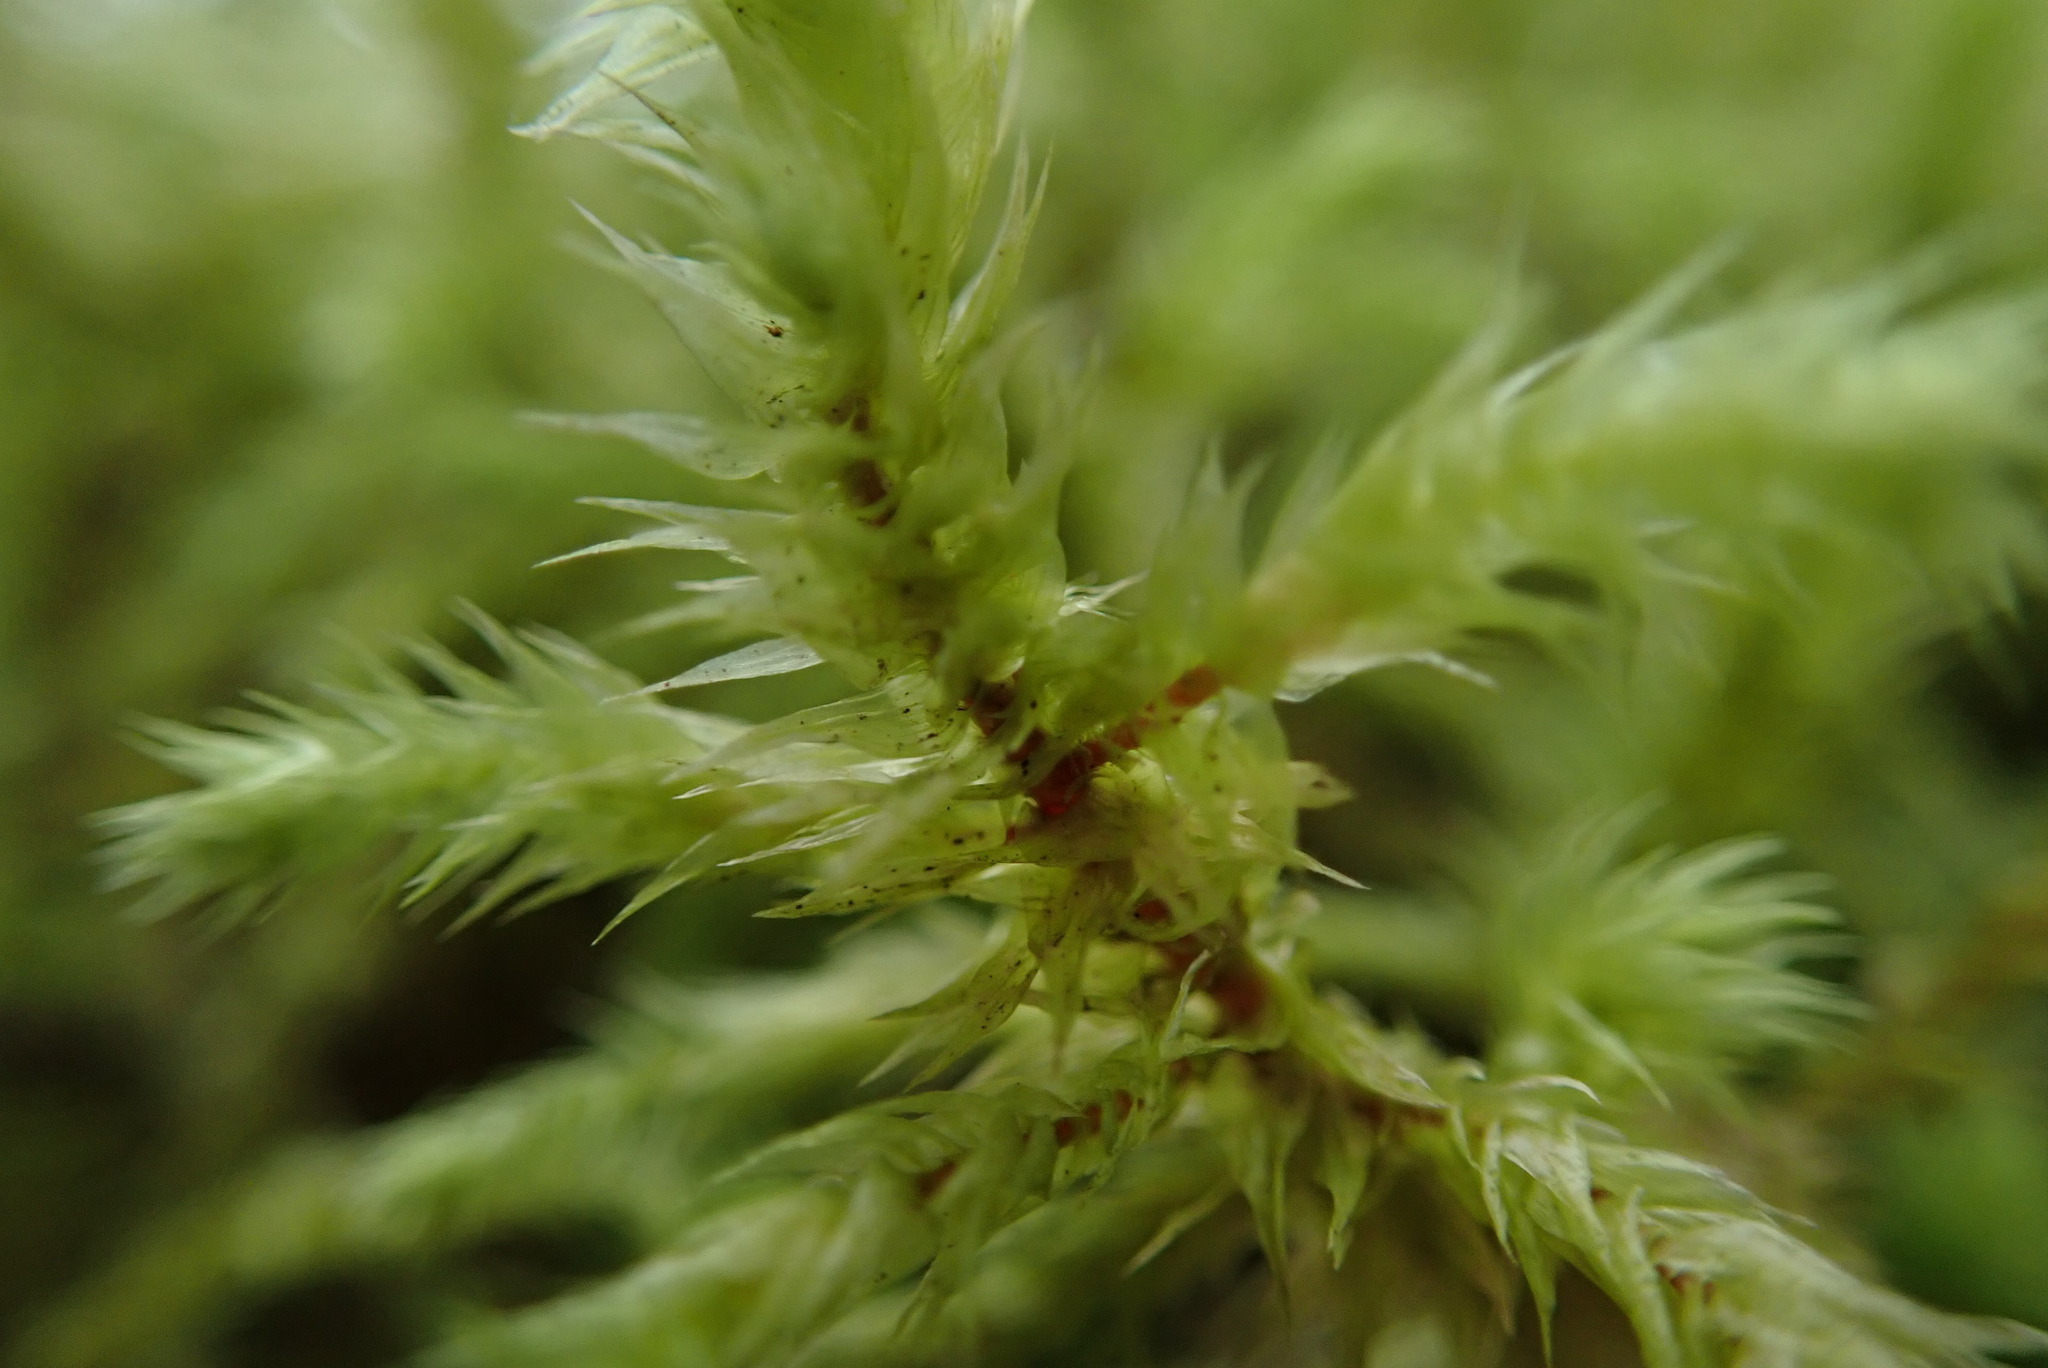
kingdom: Plantae
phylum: Bryophyta
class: Bryopsida
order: Hypnales
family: Hylocomiaceae
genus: Hylocomiadelphus
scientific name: Hylocomiadelphus triquetrus
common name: Rough goose neck moss
